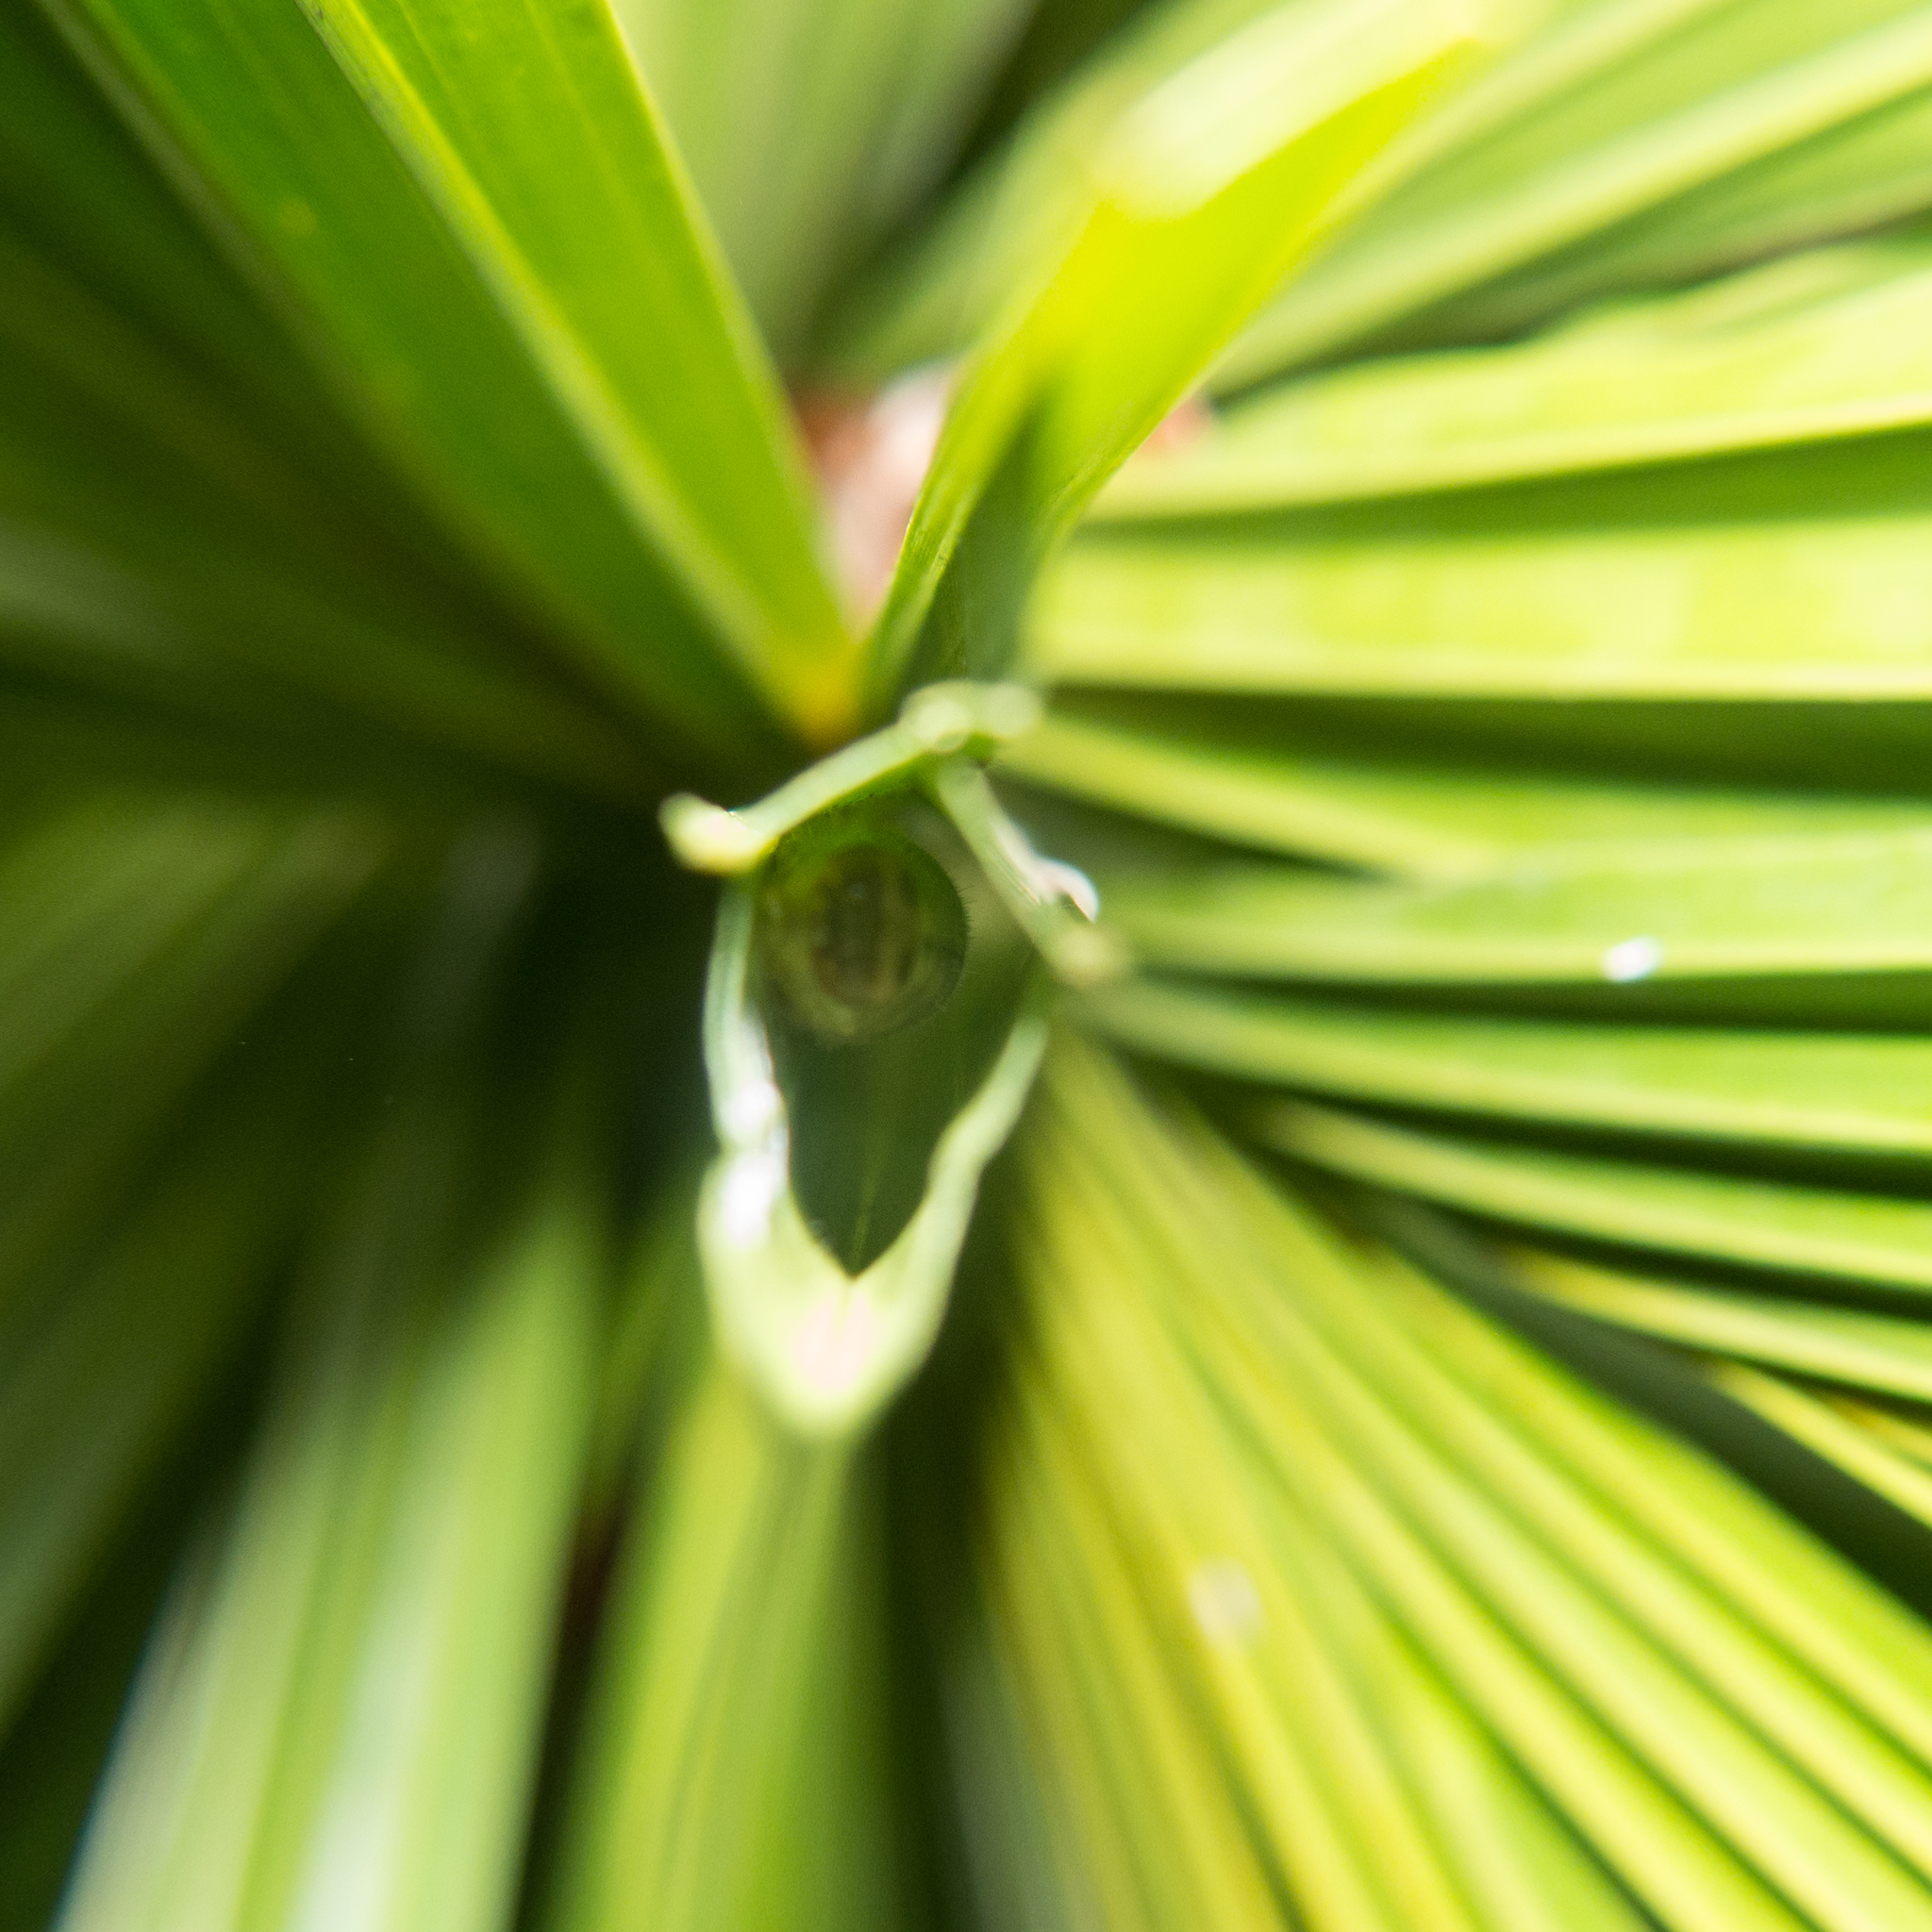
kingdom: Plantae
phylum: Tracheophyta
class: Liliopsida
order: Arecales
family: Arecaceae
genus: Licuala
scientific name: Licuala spinosa
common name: Mangrove fan palm
